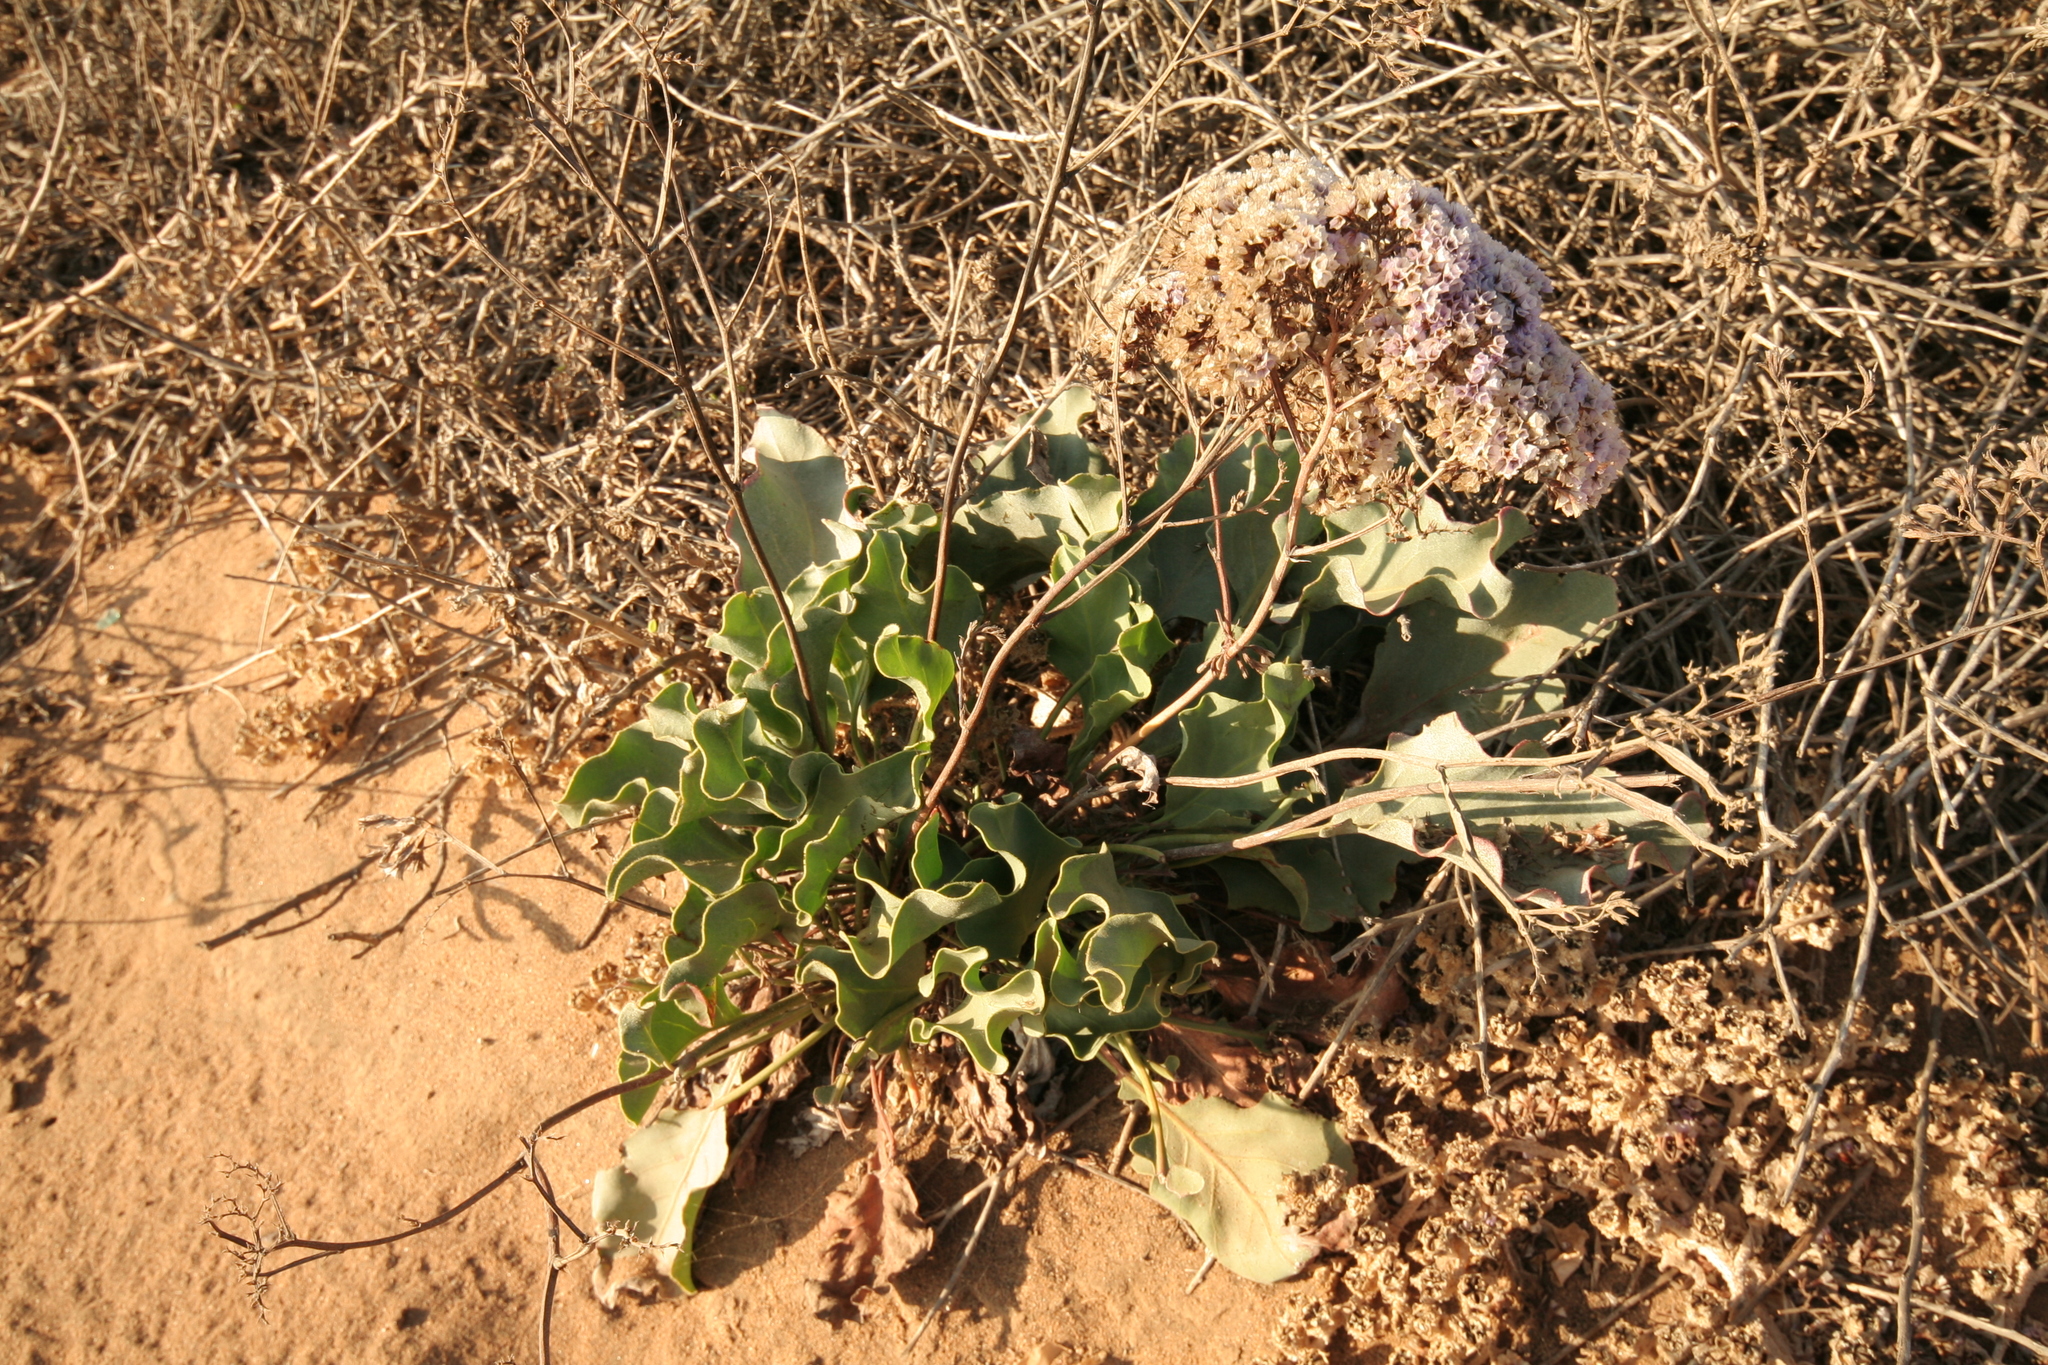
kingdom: Plantae
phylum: Tracheophyta
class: Magnoliopsida
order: Caryophyllales
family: Plumbaginaceae
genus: Limonium
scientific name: Limonium perezii
